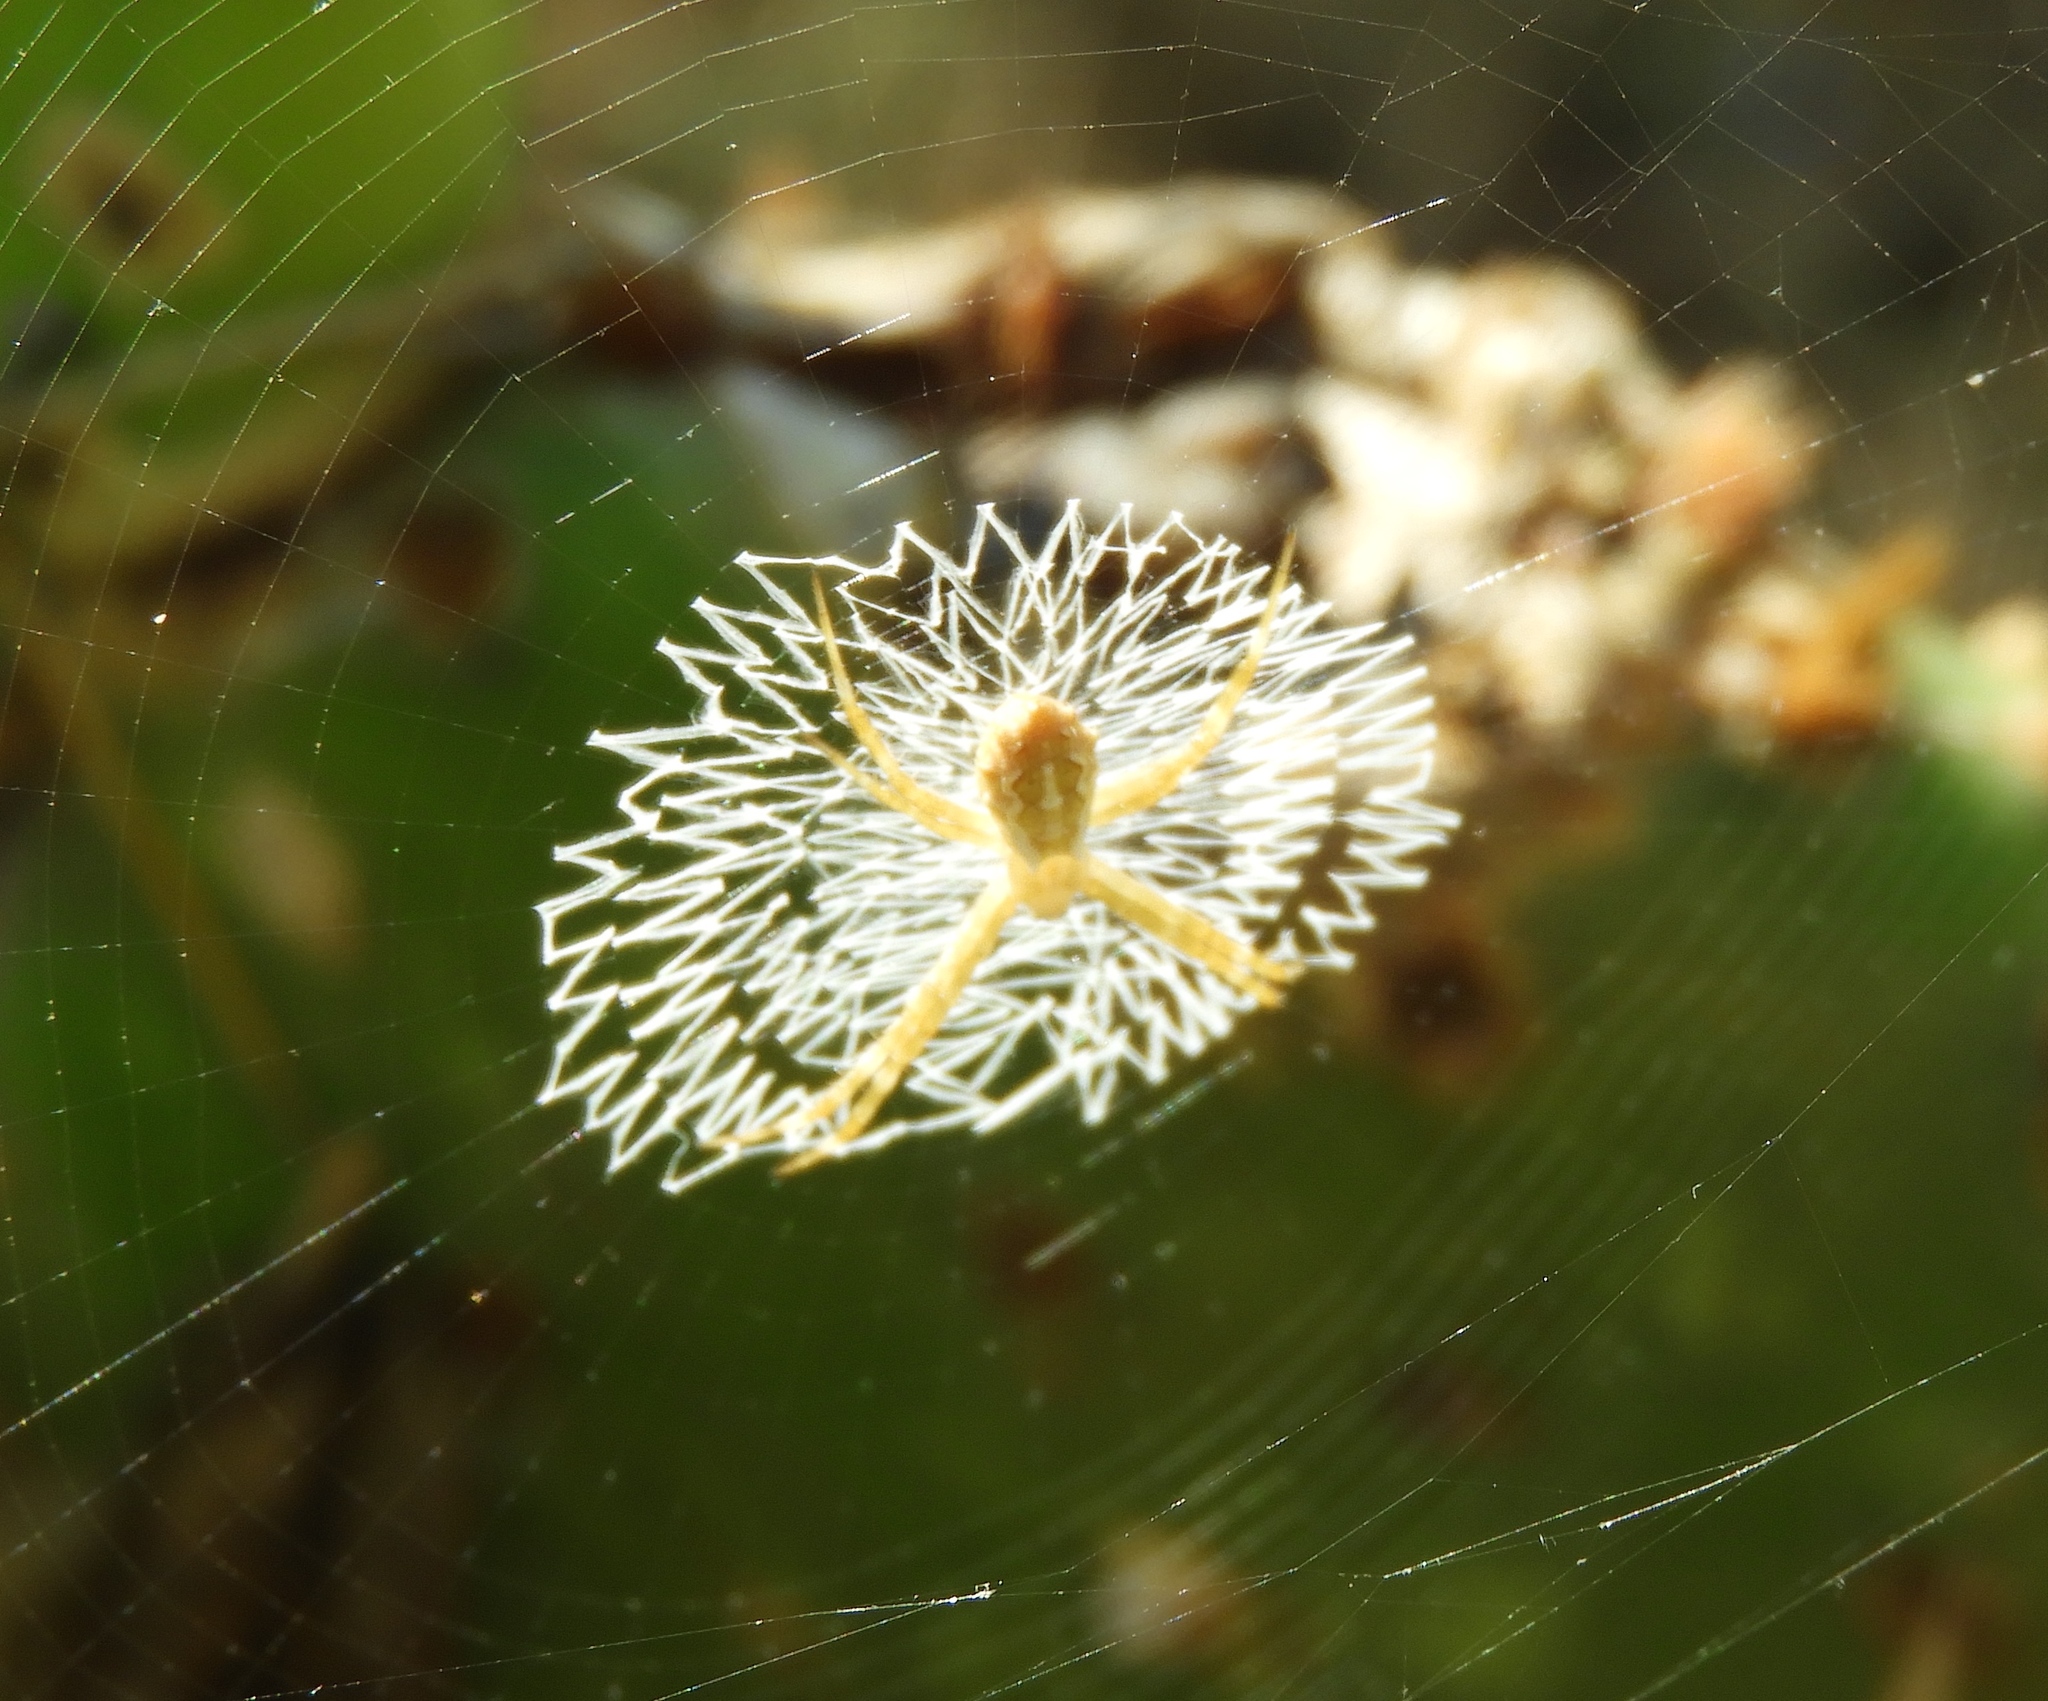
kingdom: Animalia
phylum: Arthropoda
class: Arachnida
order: Araneae
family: Araneidae
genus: Argiope
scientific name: Argiope
